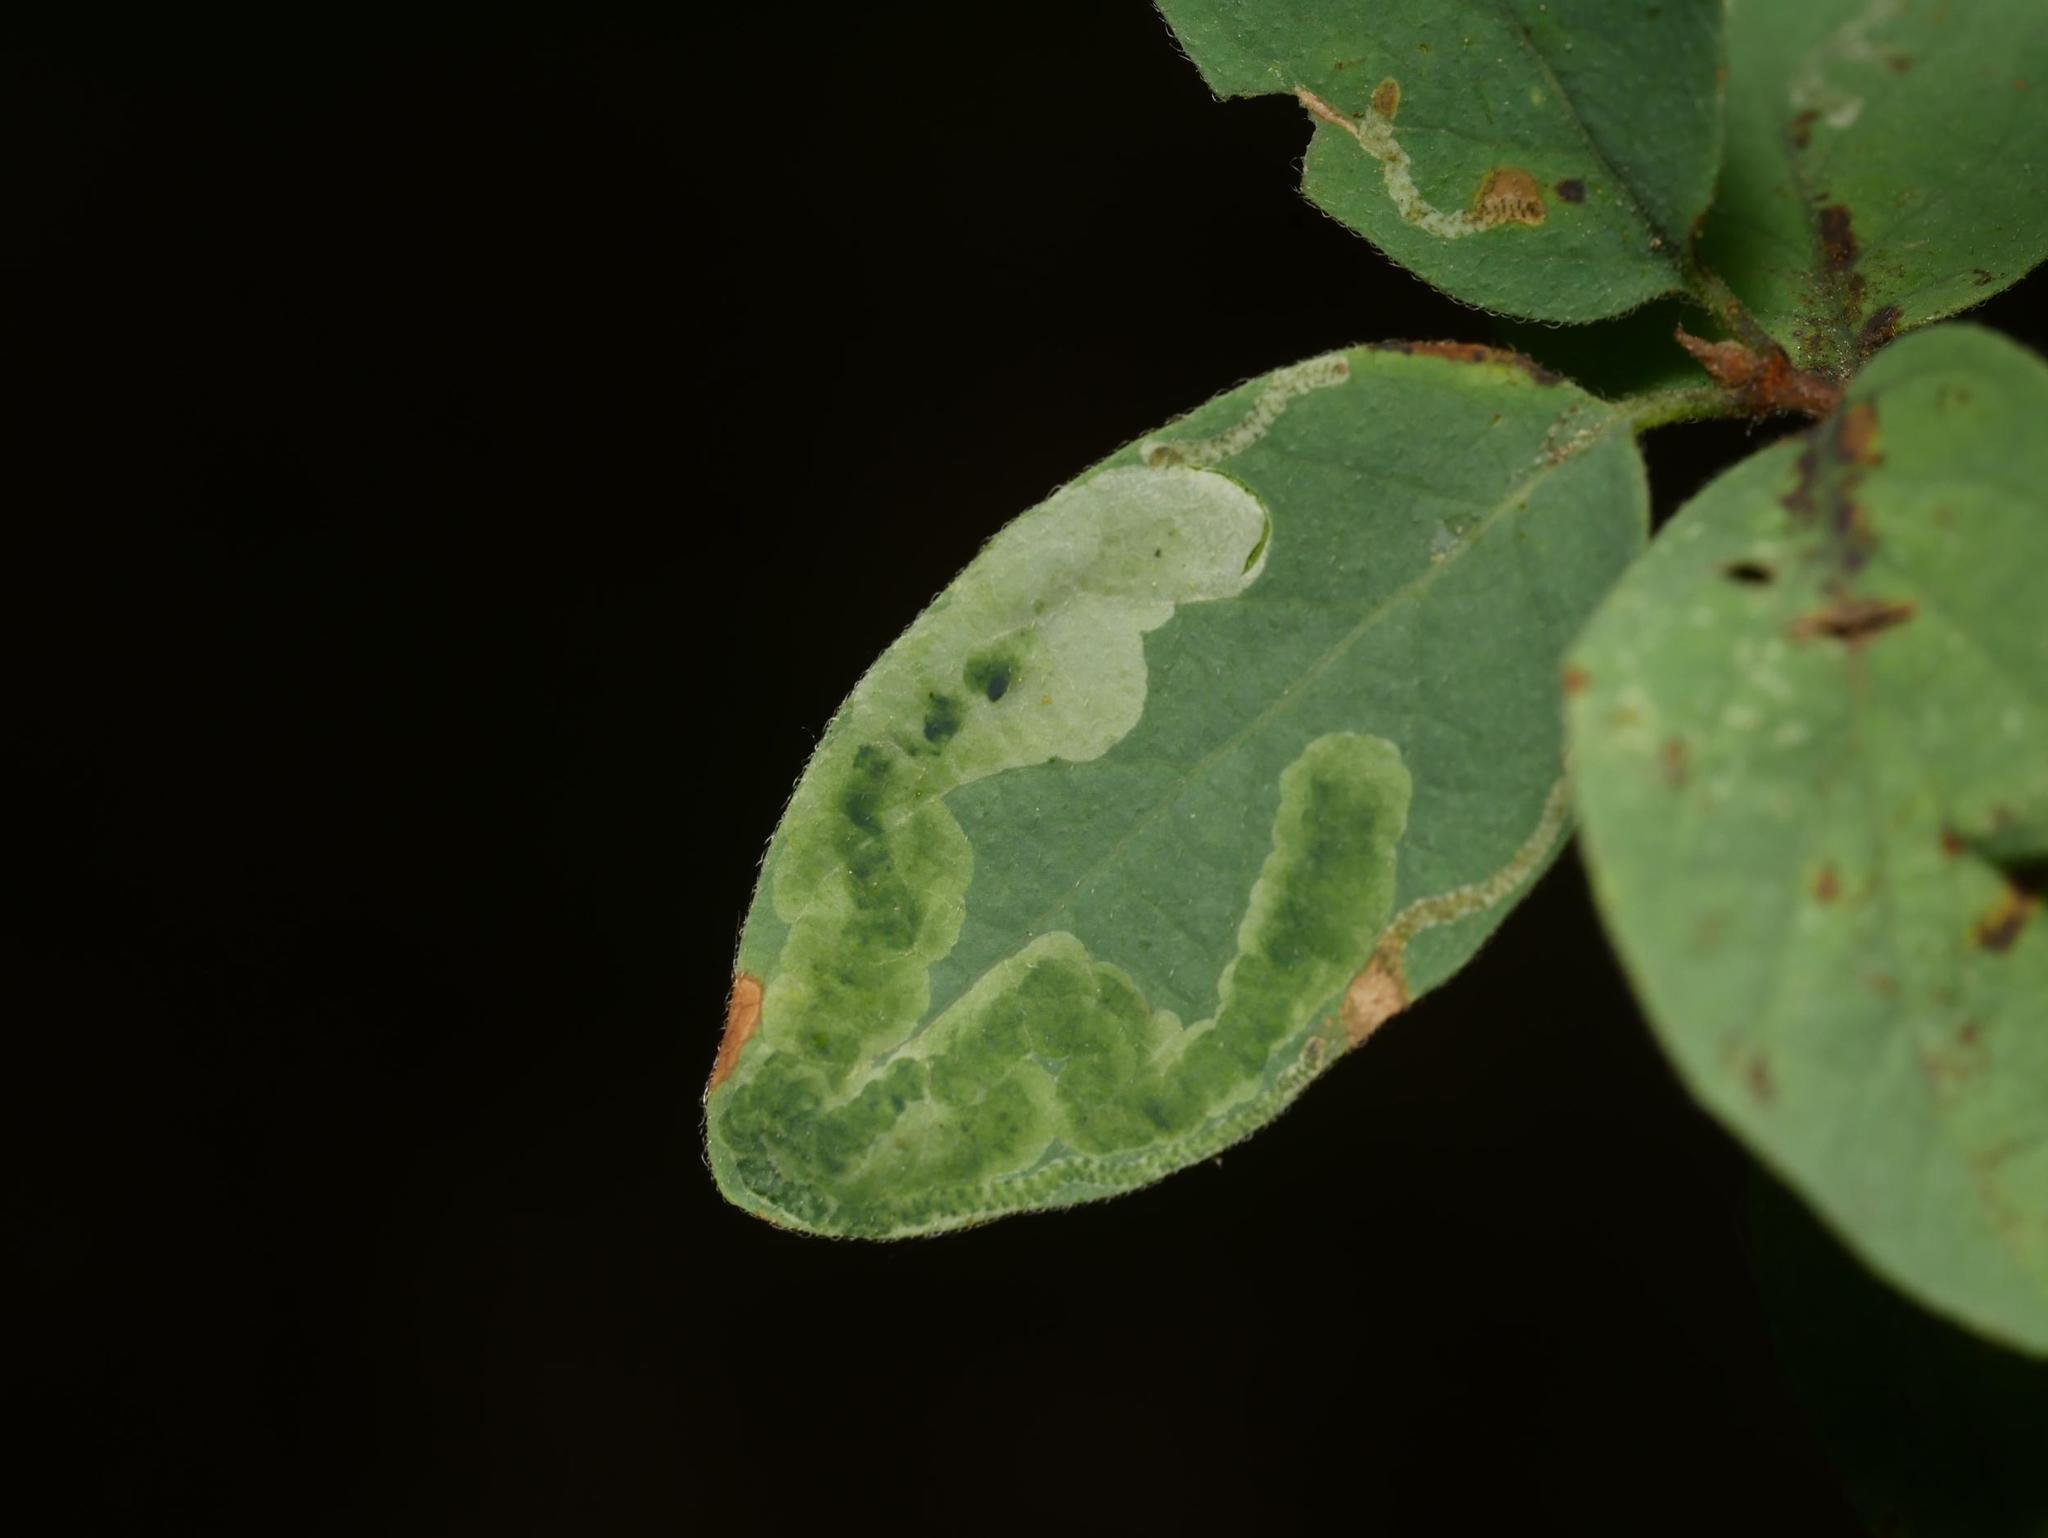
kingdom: Animalia
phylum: Arthropoda
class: Insecta
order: Diptera
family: Agromyzidae
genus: Aulagromyza
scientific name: Aulagromyza luteoscutellata
